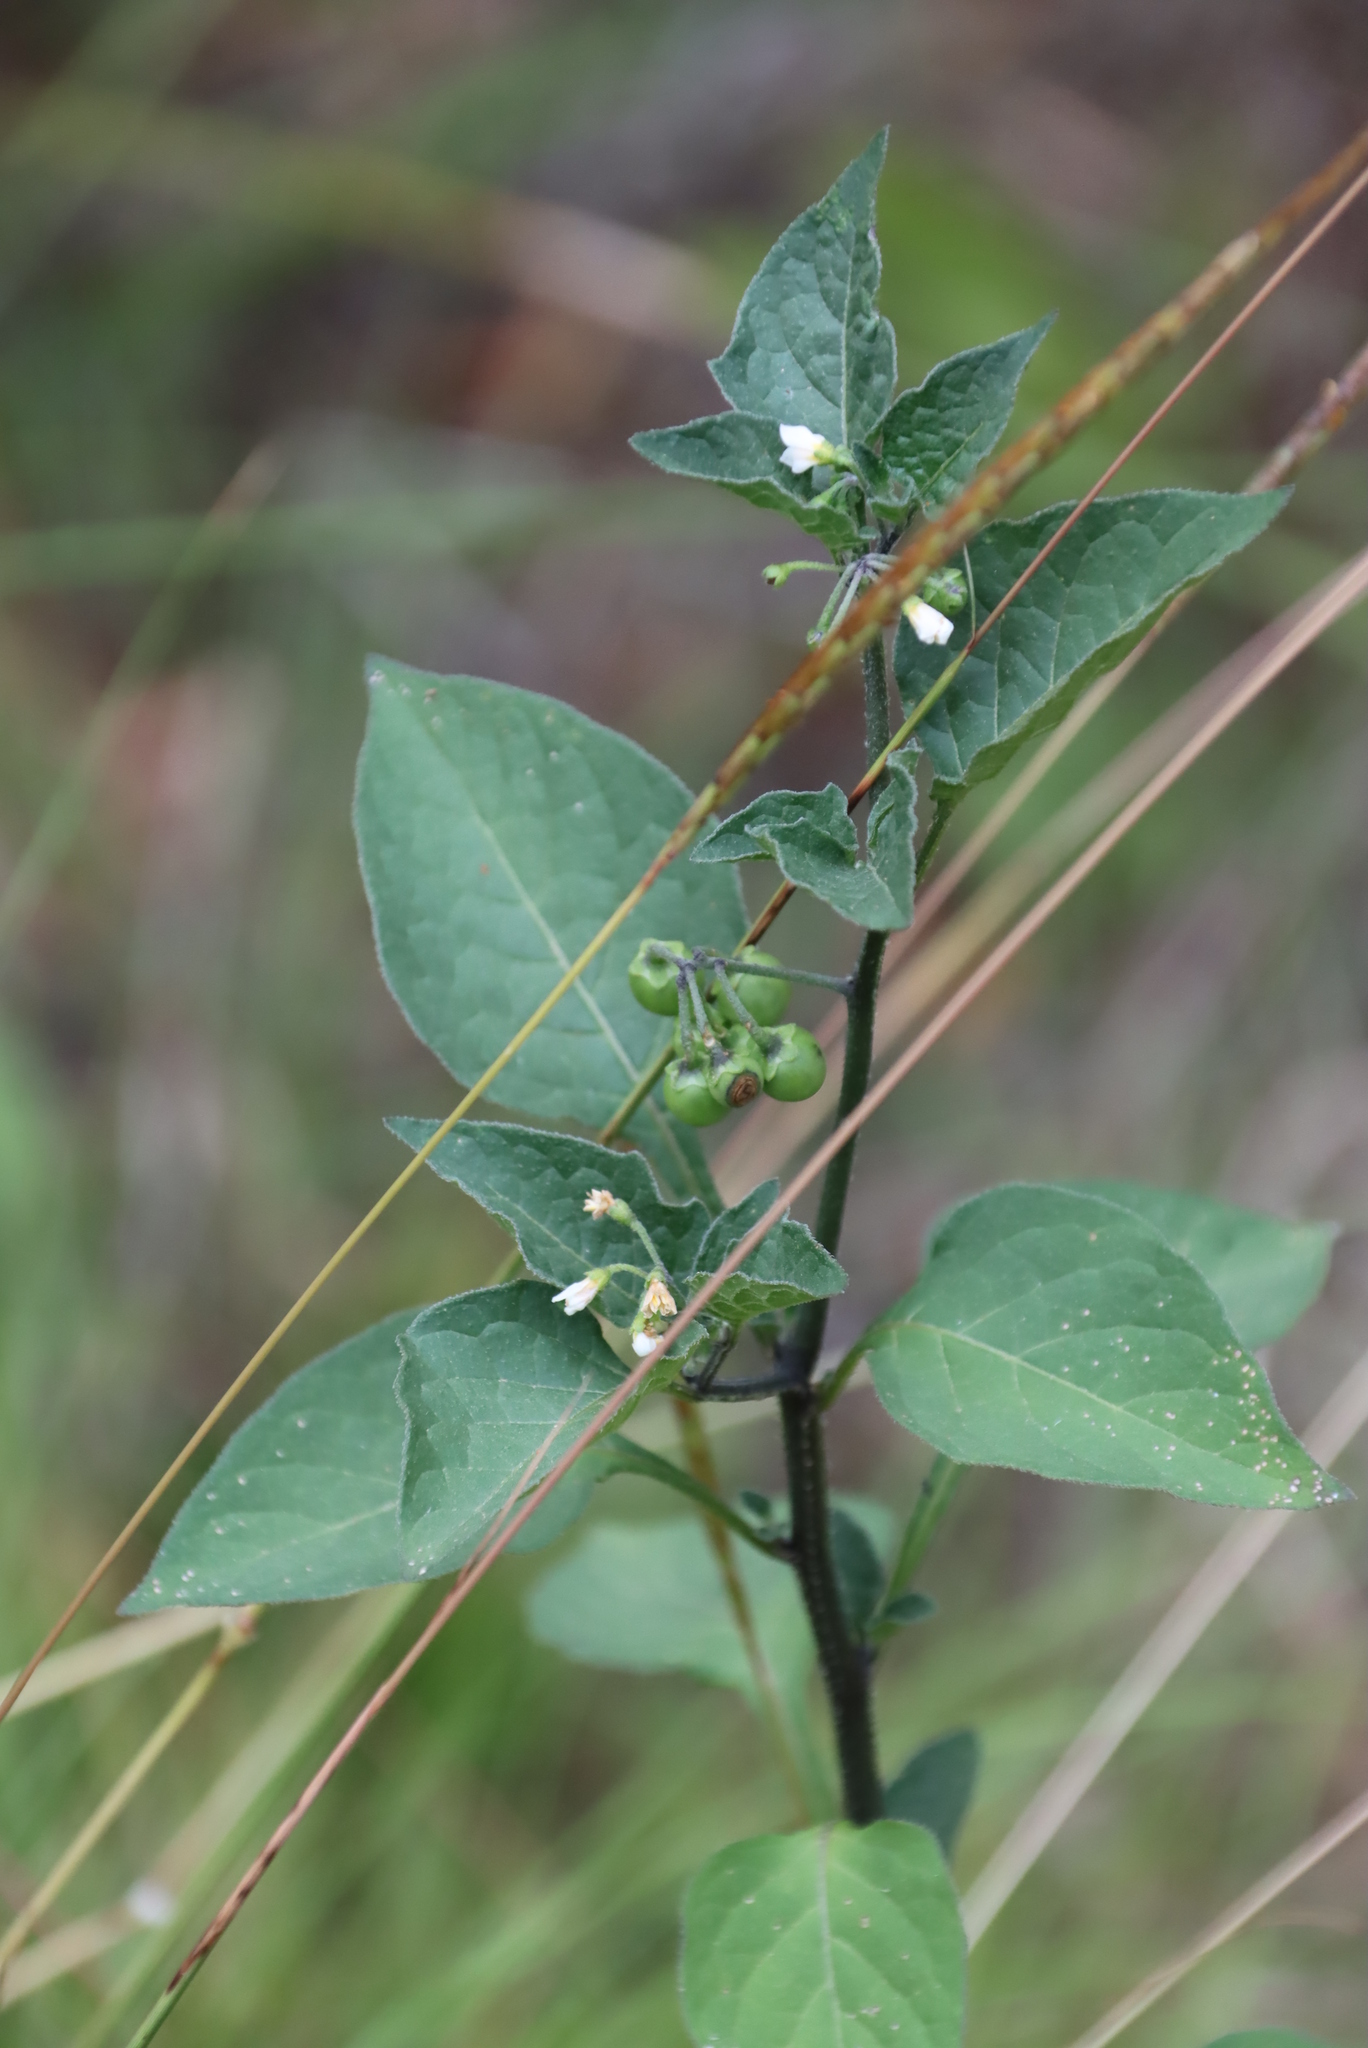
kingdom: Plantae
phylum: Tracheophyta
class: Magnoliopsida
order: Solanales
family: Solanaceae
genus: Solanum
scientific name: Solanum nigrum
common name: Black nightshade
